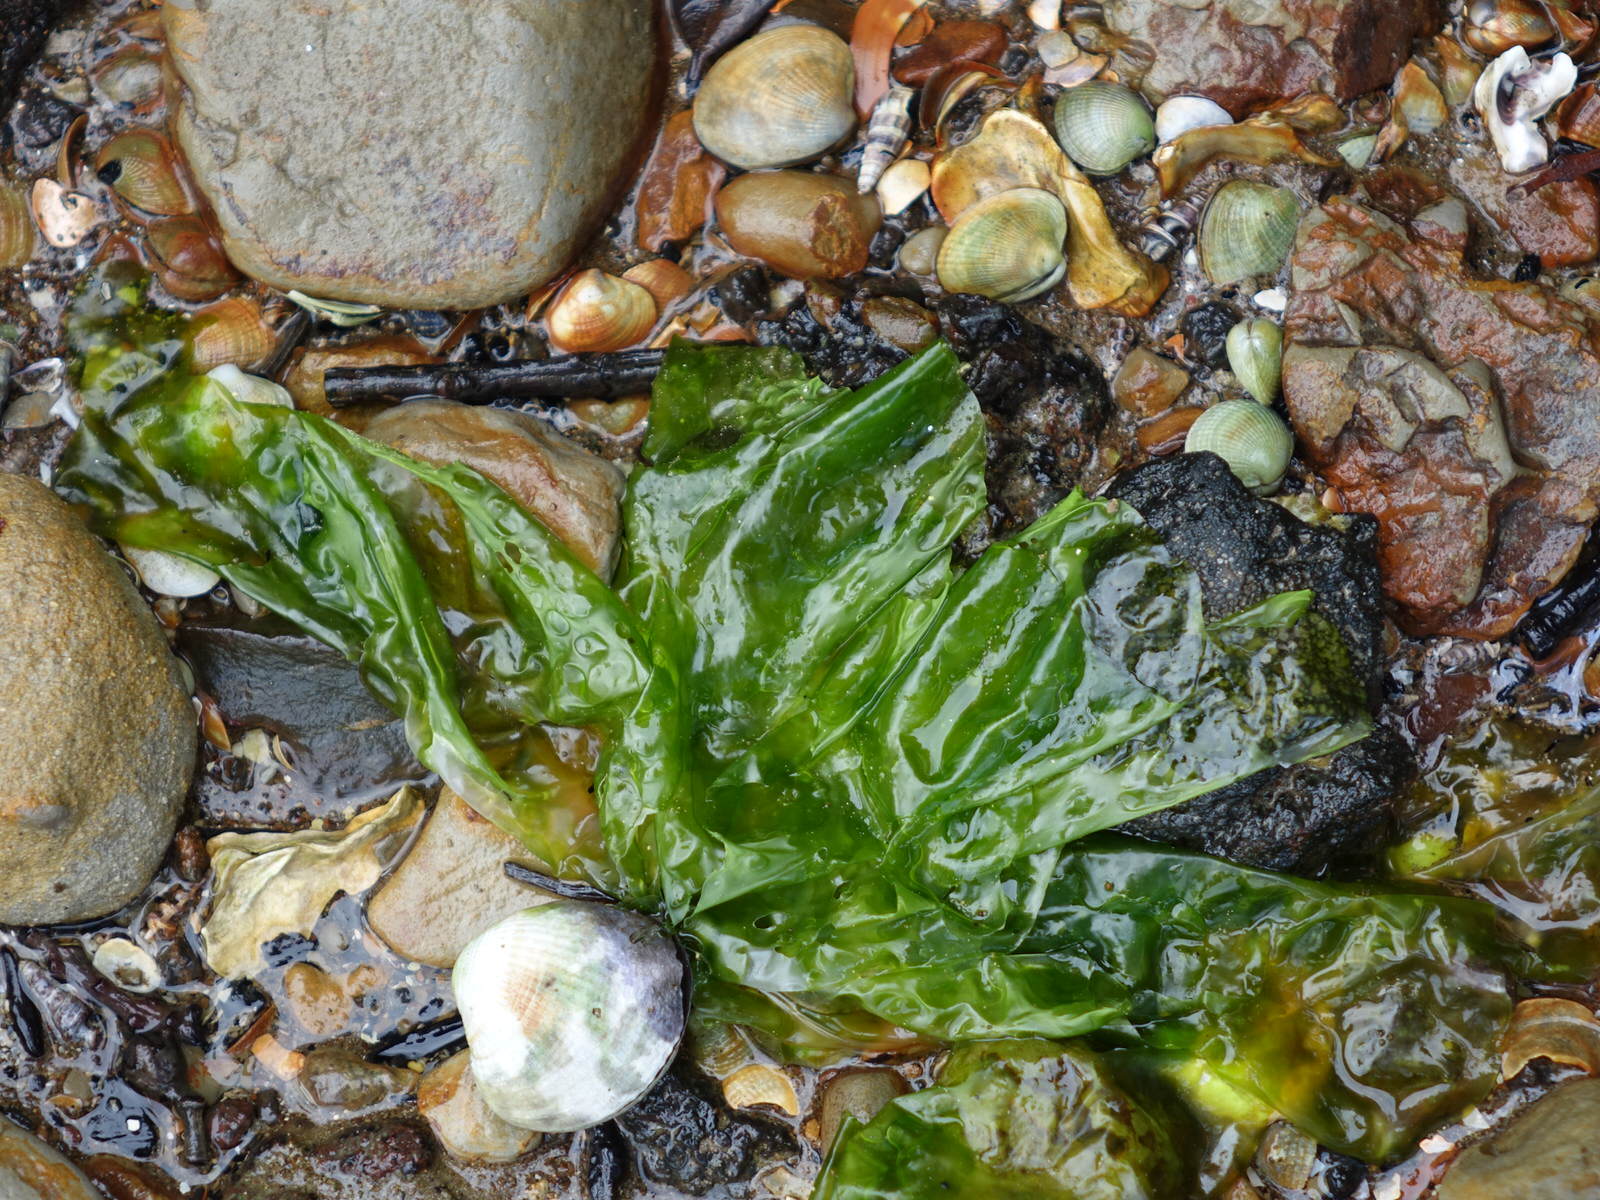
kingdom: Plantae
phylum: Chlorophyta
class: Ulvophyceae
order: Ulvales
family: Ulvaceae
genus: Ulva
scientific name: Ulva
